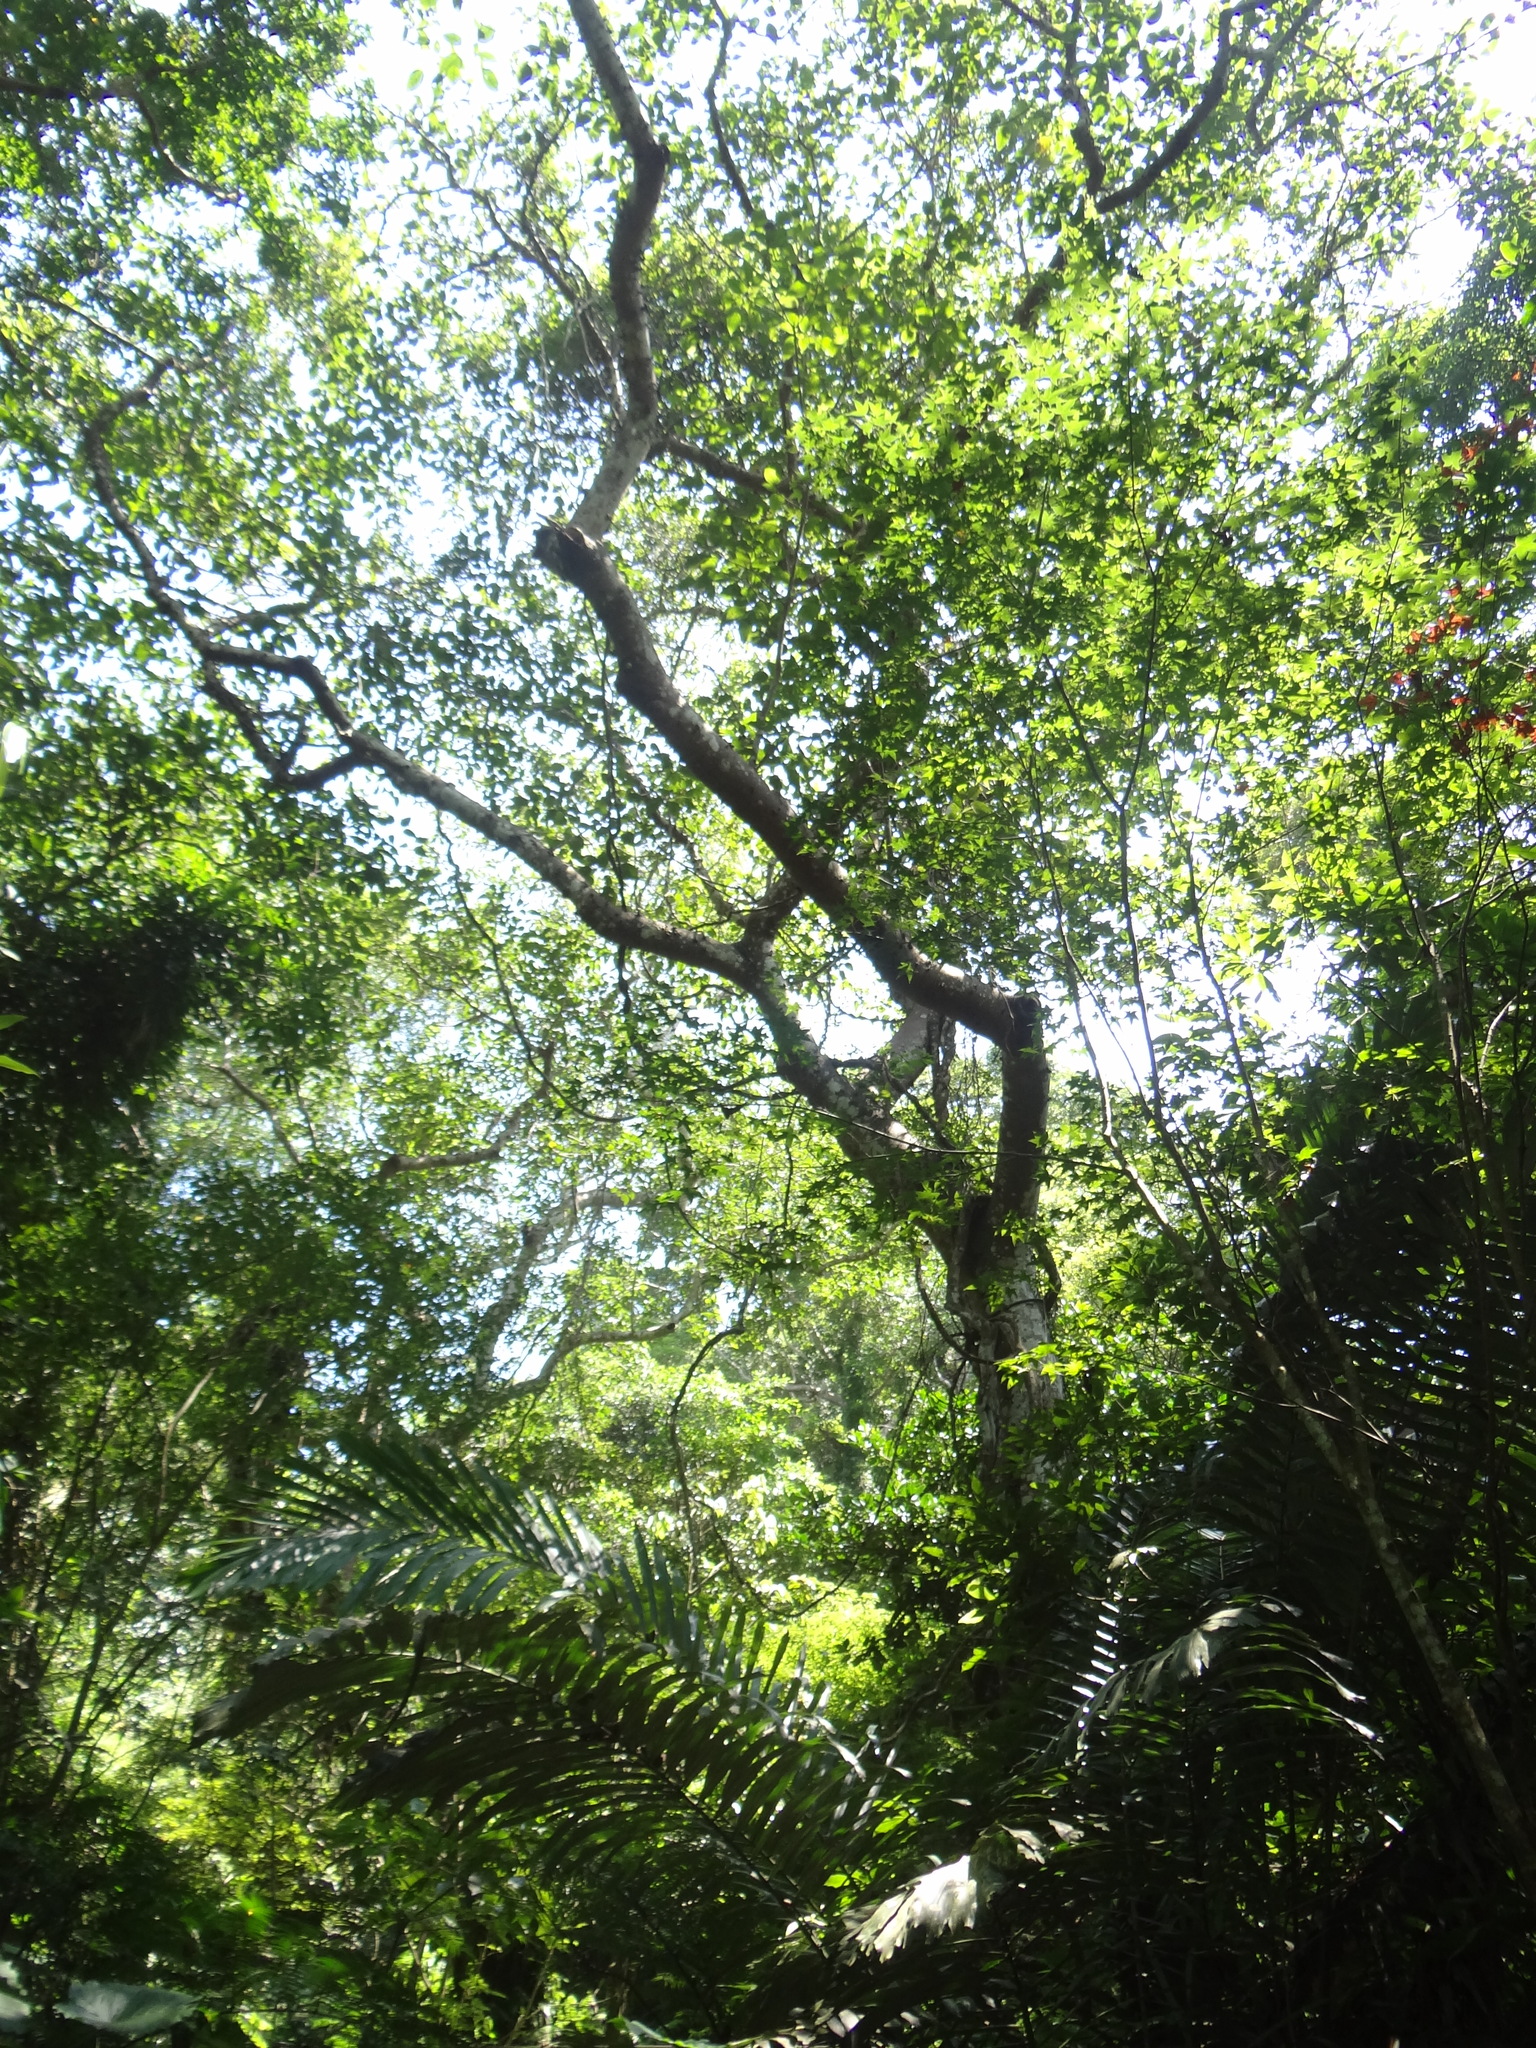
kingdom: Plantae
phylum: Tracheophyta
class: Magnoliopsida
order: Rosales
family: Moraceae
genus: Ficus
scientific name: Ficus variegata
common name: Variegated fig
